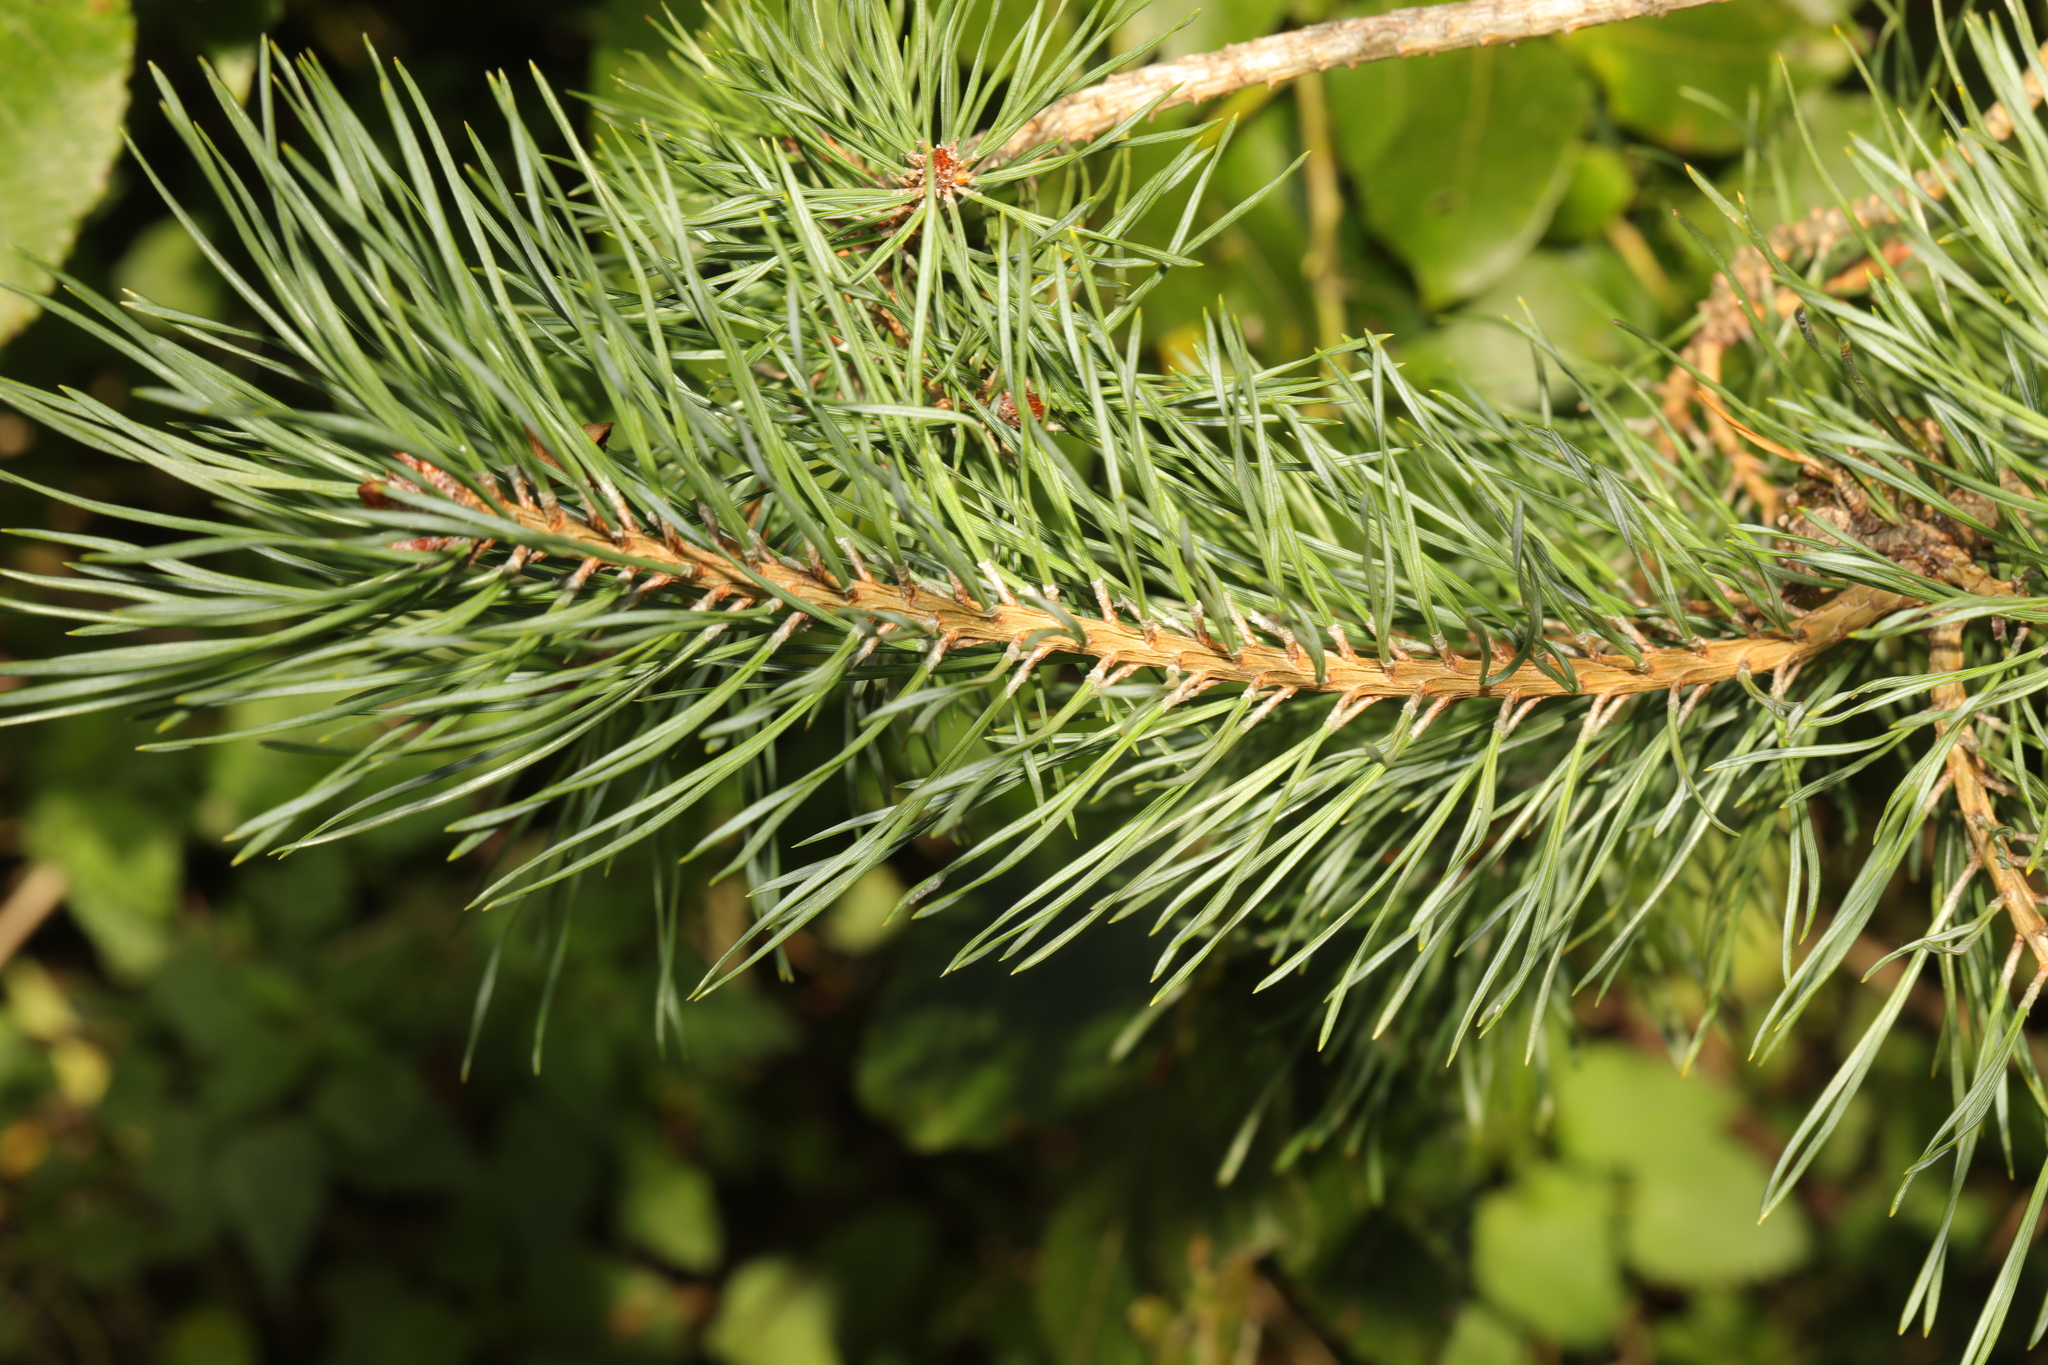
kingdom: Plantae
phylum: Tracheophyta
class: Pinopsida
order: Pinales
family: Pinaceae
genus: Pinus
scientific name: Pinus sylvestris
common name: Scots pine
